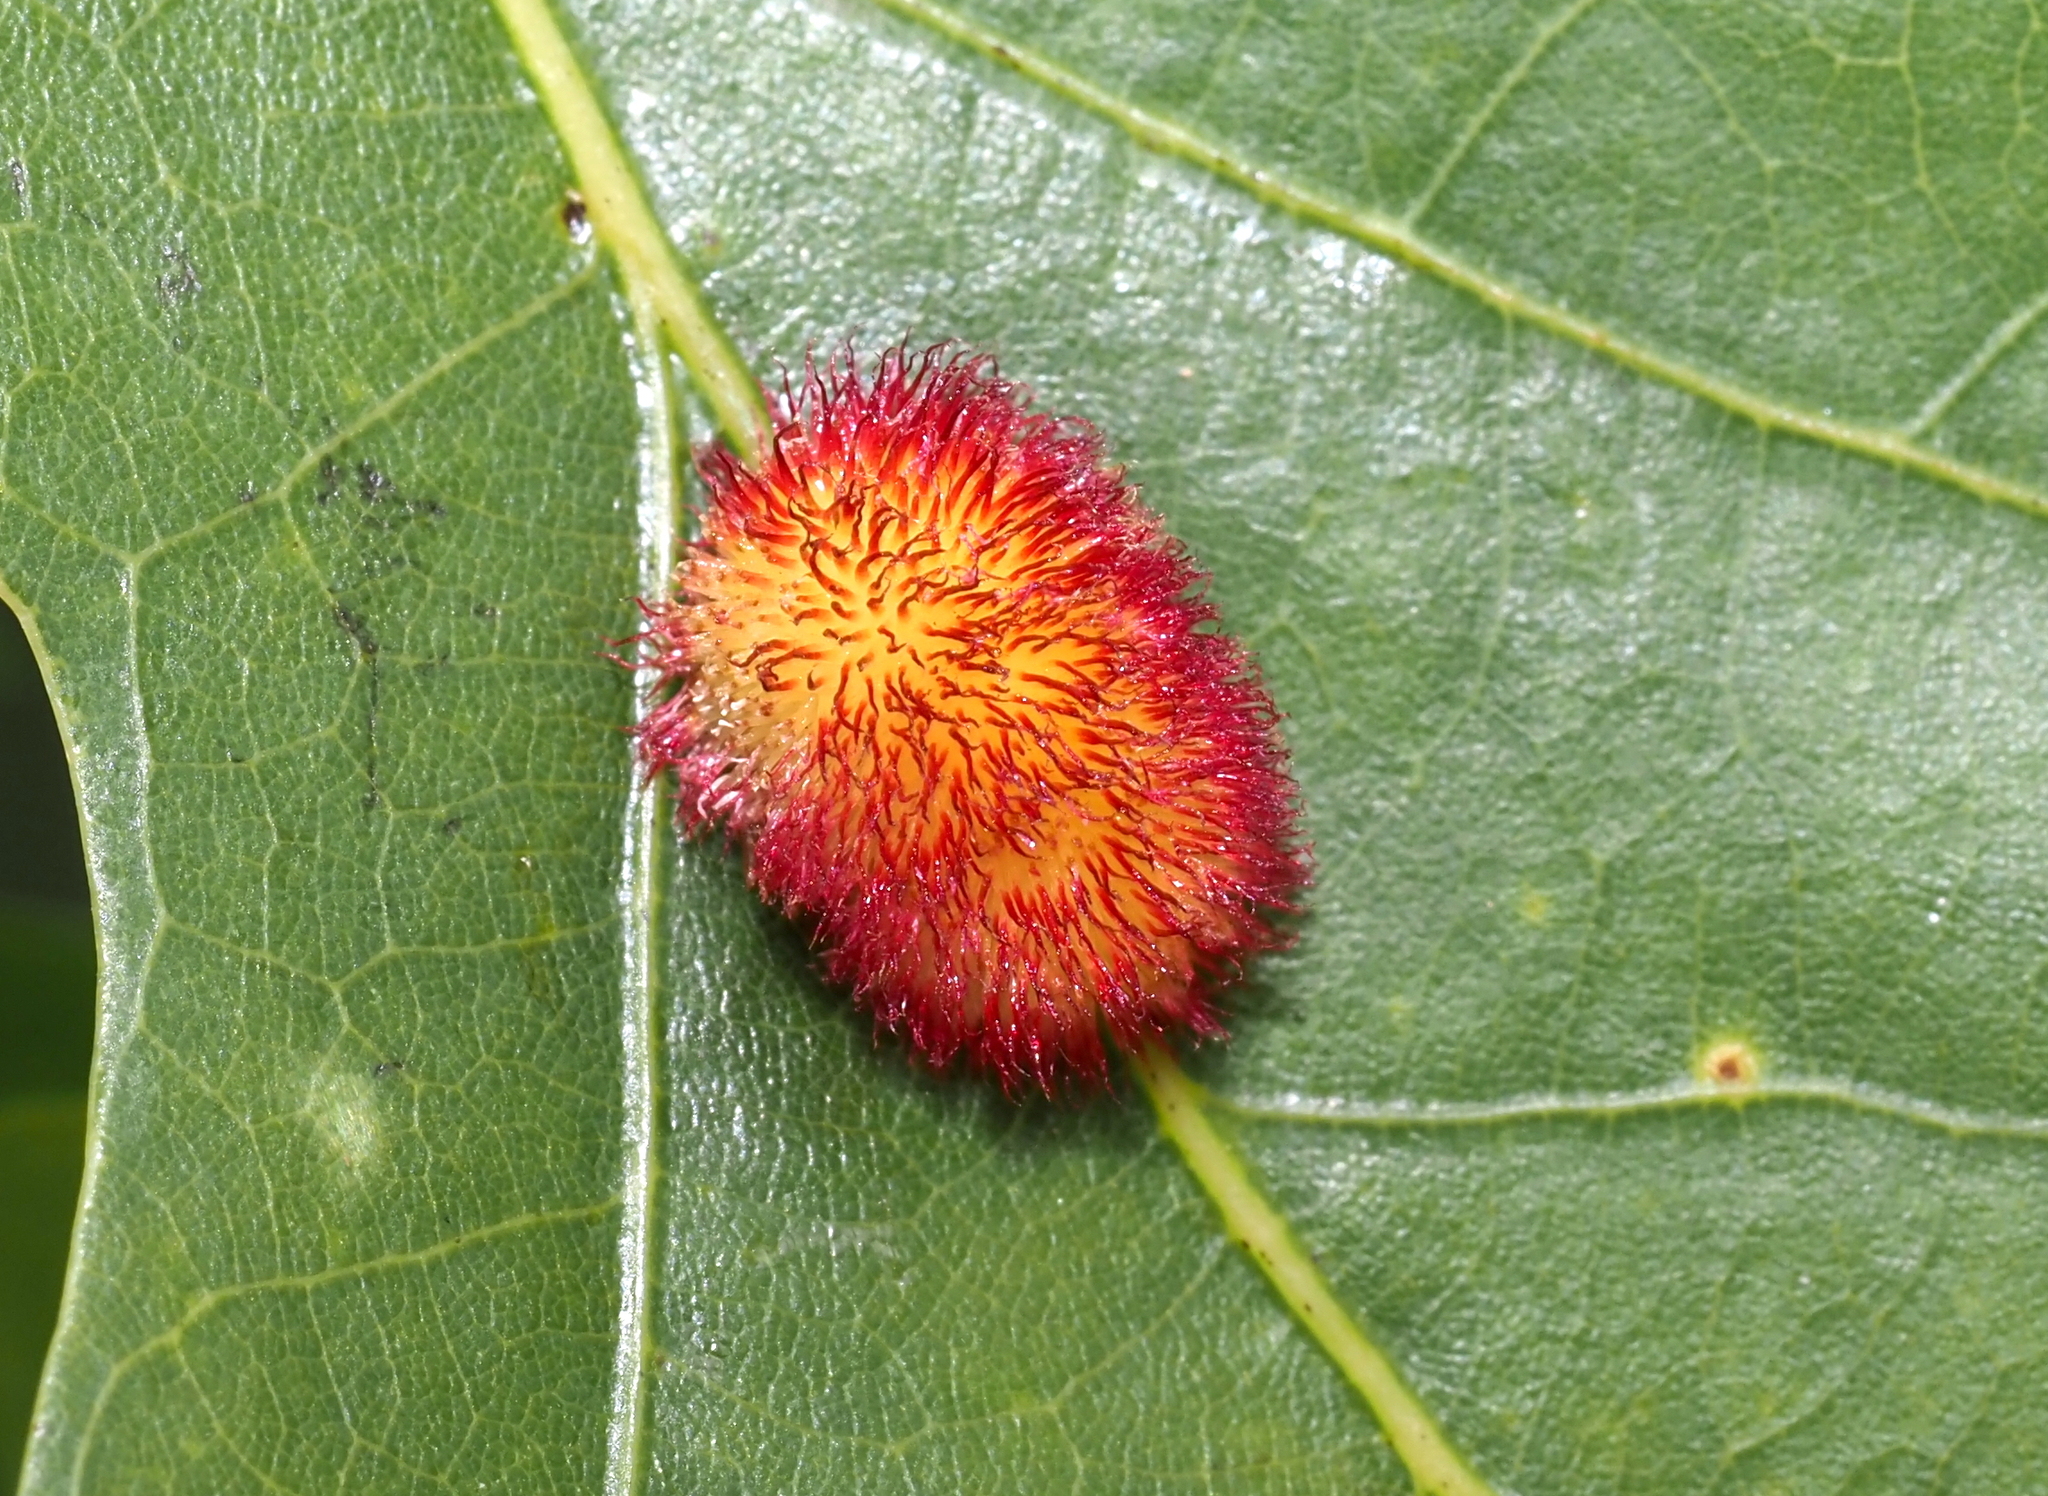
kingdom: Animalia
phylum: Arthropoda
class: Insecta
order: Hymenoptera
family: Cynipidae
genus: Acraspis
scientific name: Acraspis erinacei
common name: Hedgehog gall wasp
